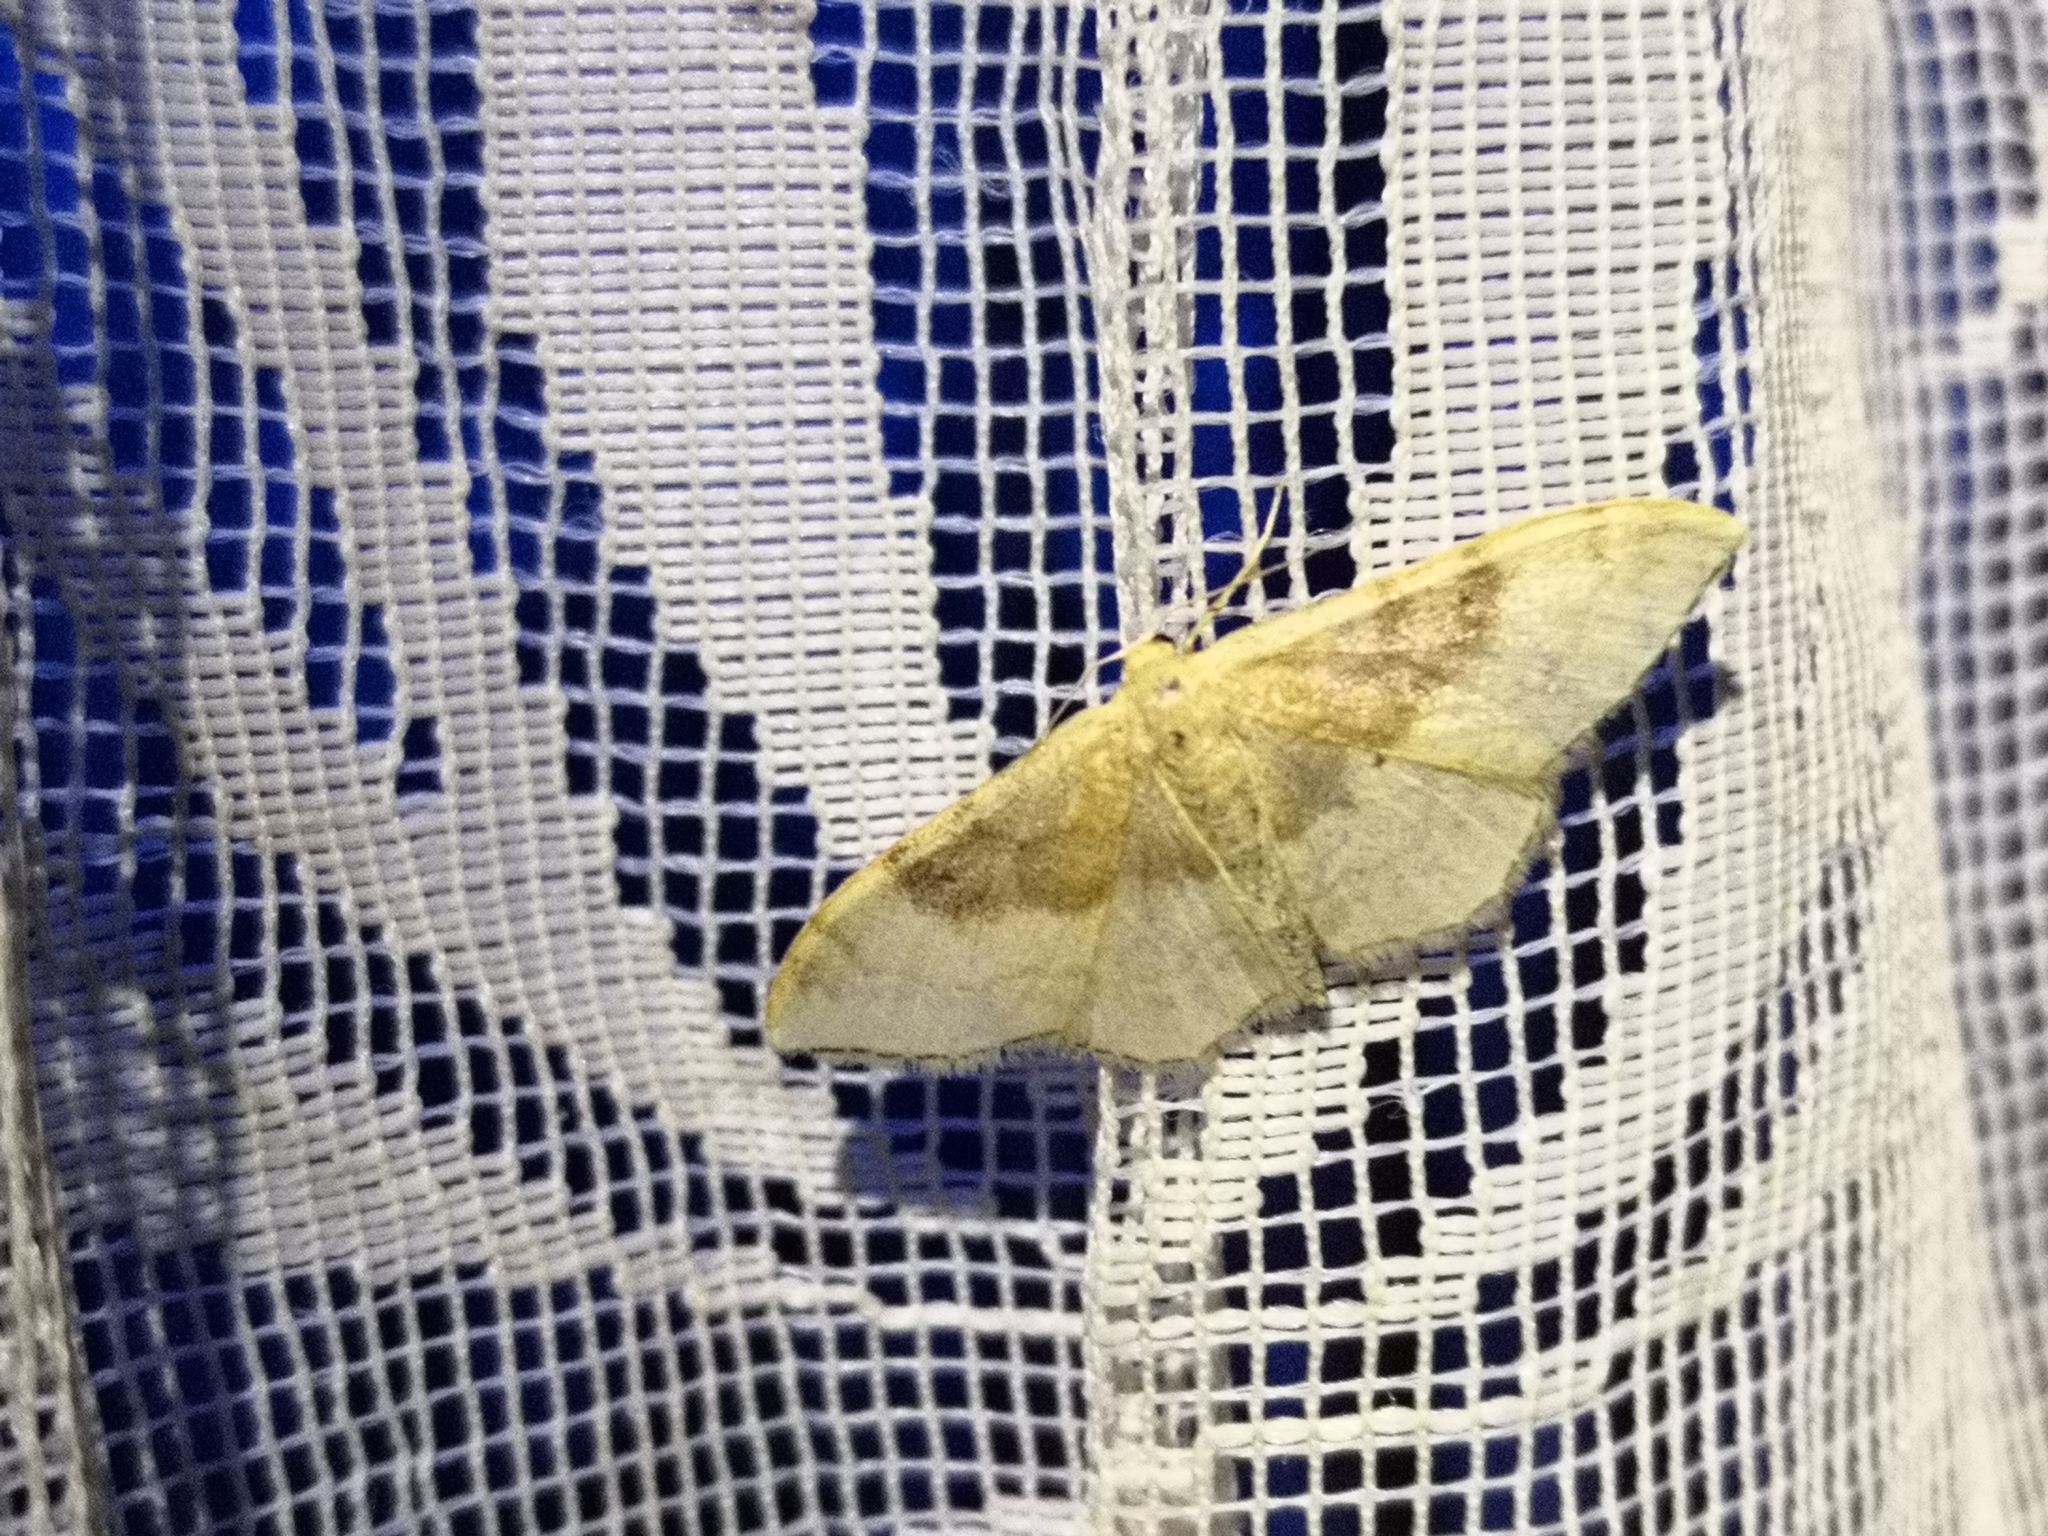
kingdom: Animalia
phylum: Arthropoda
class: Insecta
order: Lepidoptera
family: Geometridae
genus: Idaea
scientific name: Idaea degeneraria
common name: Portland ribbon wave
